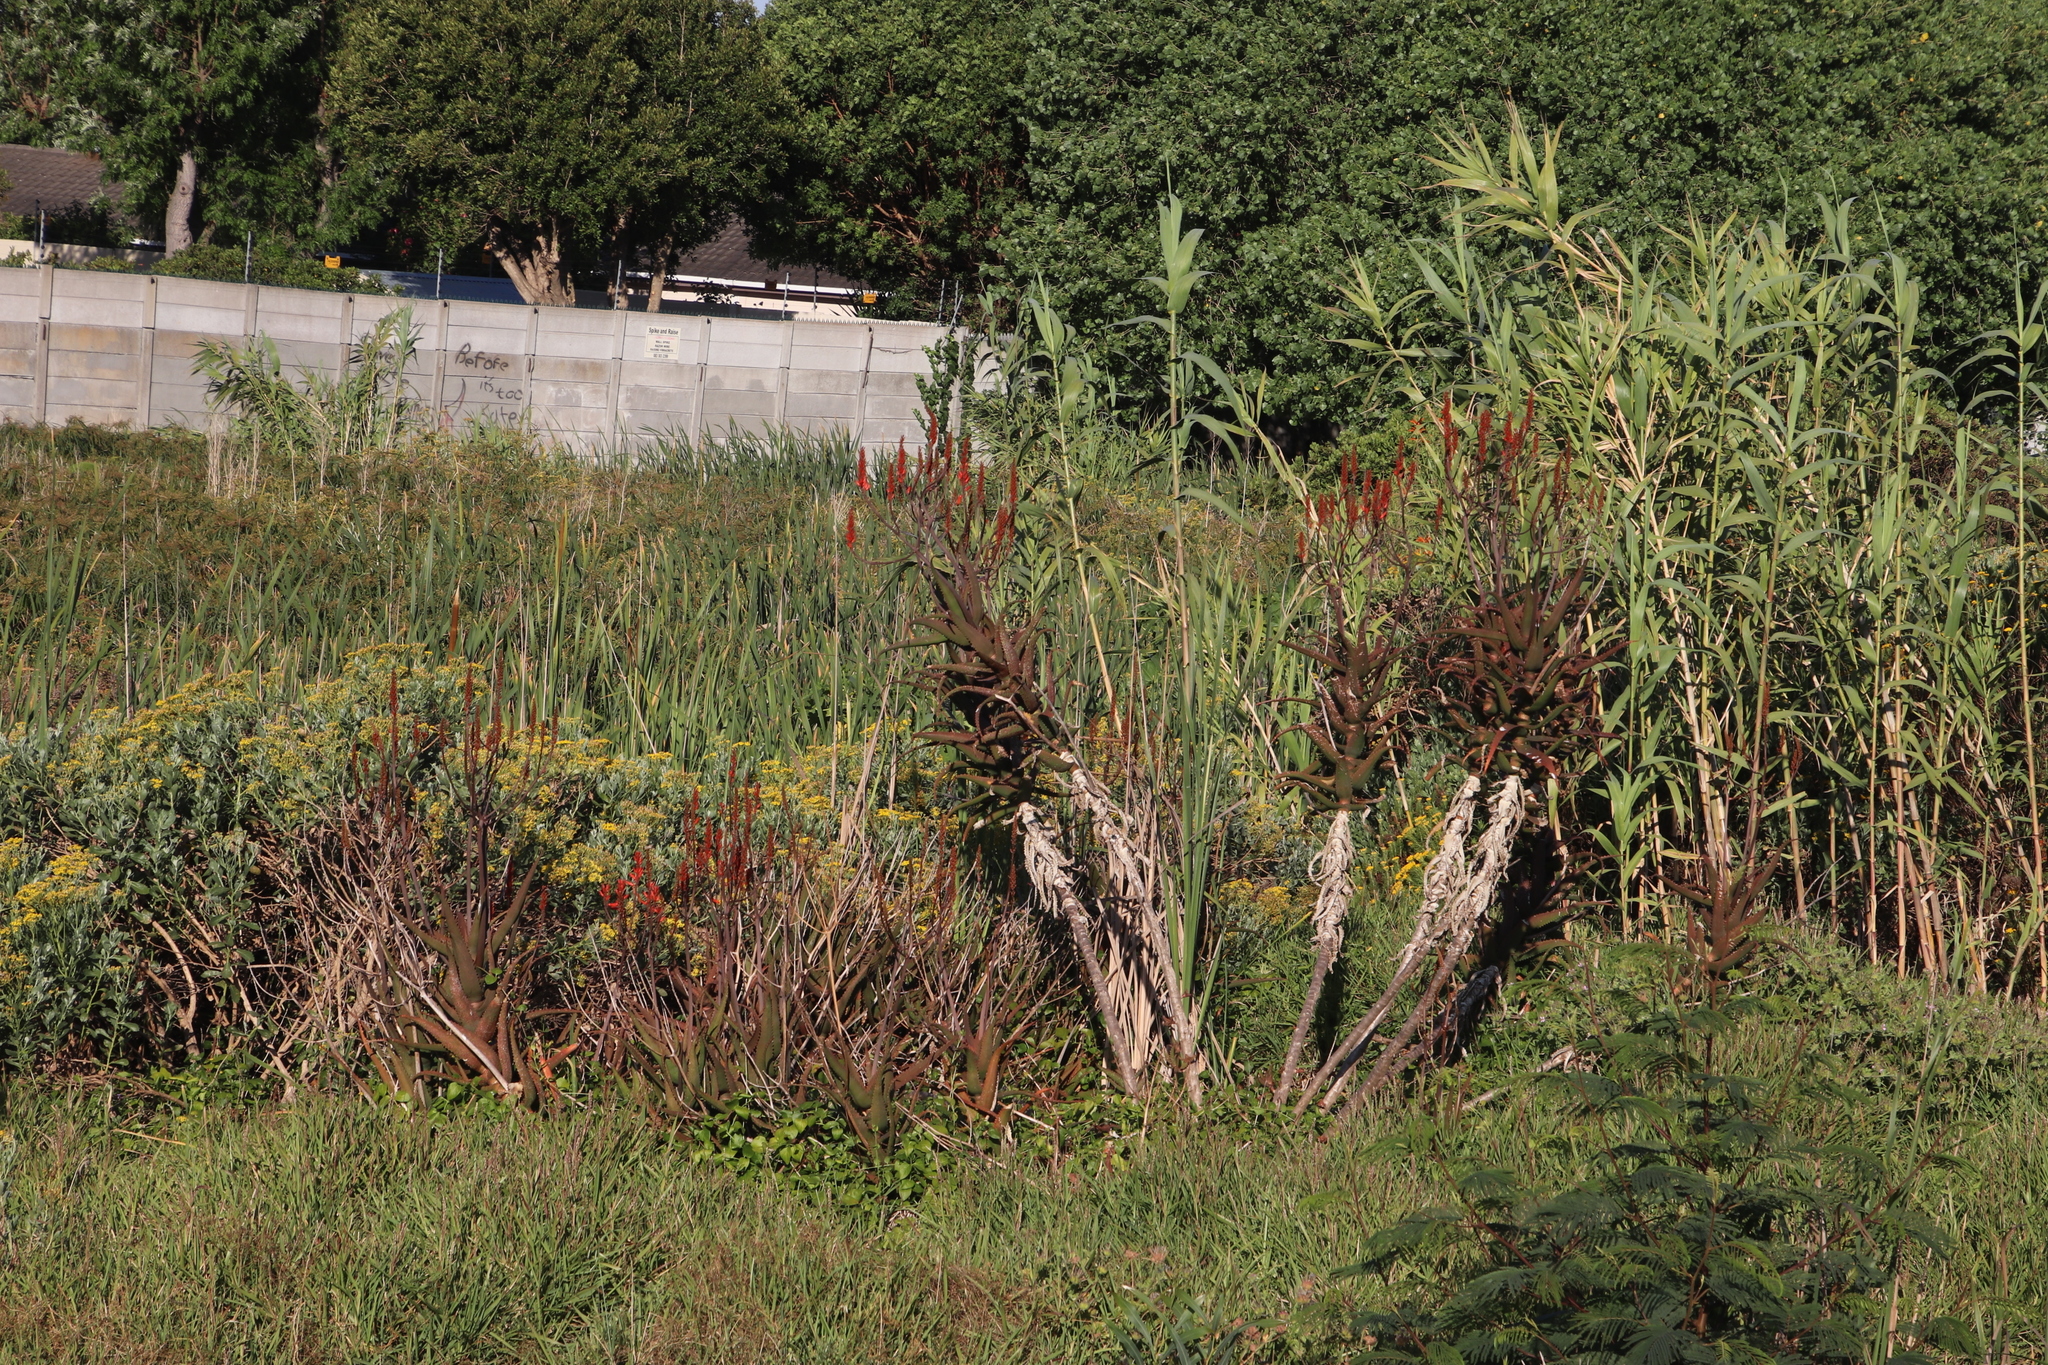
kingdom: Plantae
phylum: Tracheophyta
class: Liliopsida
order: Asparagales
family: Asphodelaceae
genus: Aloe
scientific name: Aloe cameronii
